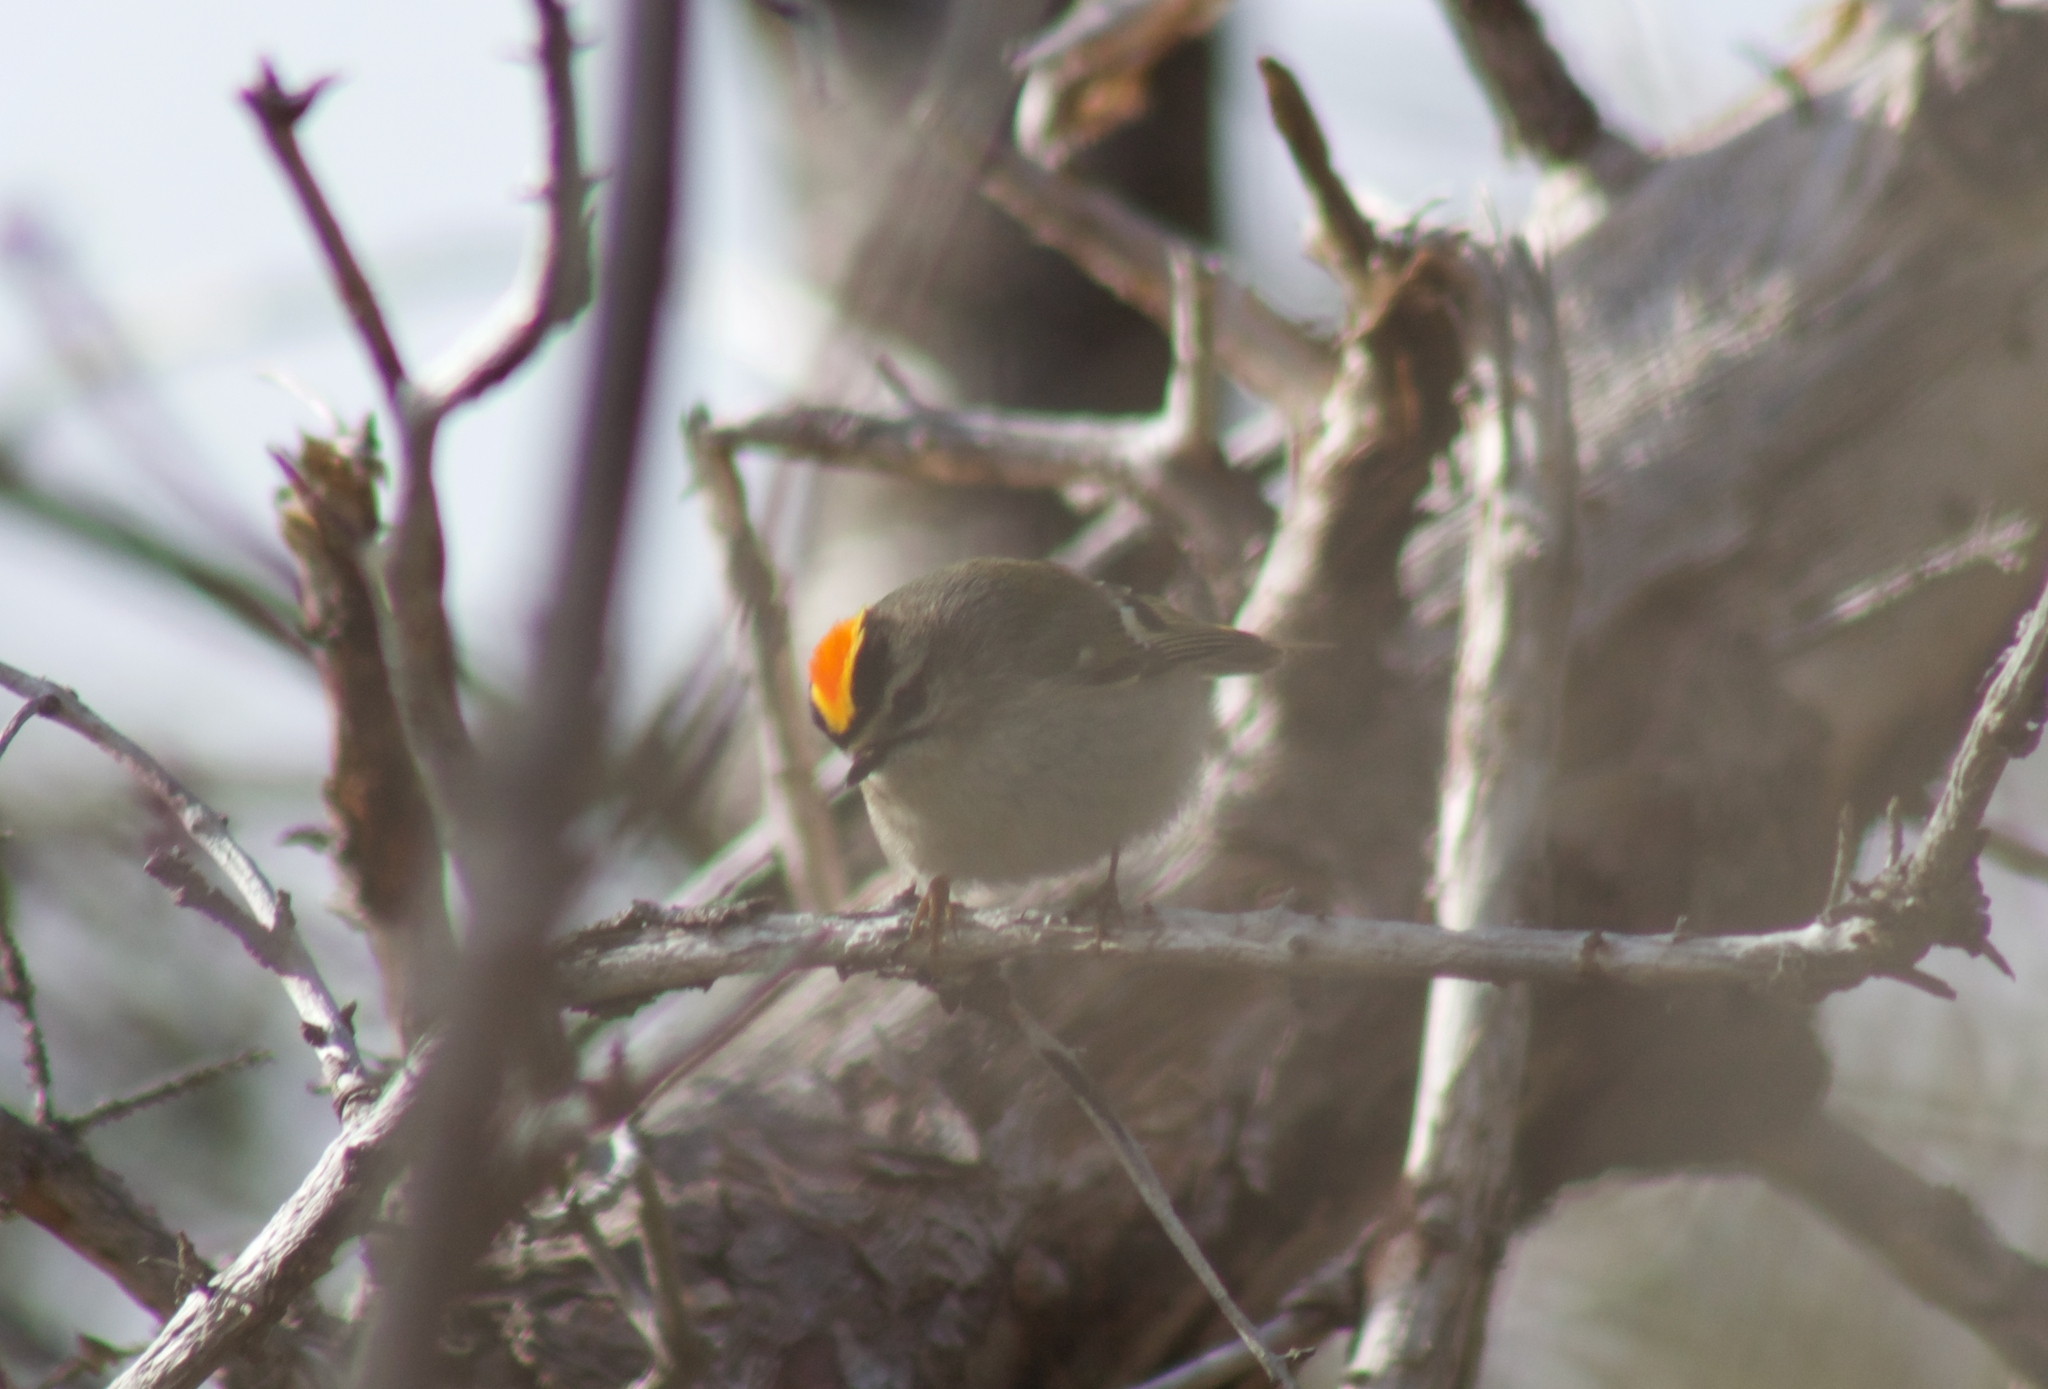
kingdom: Animalia
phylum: Chordata
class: Aves
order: Passeriformes
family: Regulidae
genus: Regulus
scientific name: Regulus satrapa
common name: Golden-crowned kinglet
